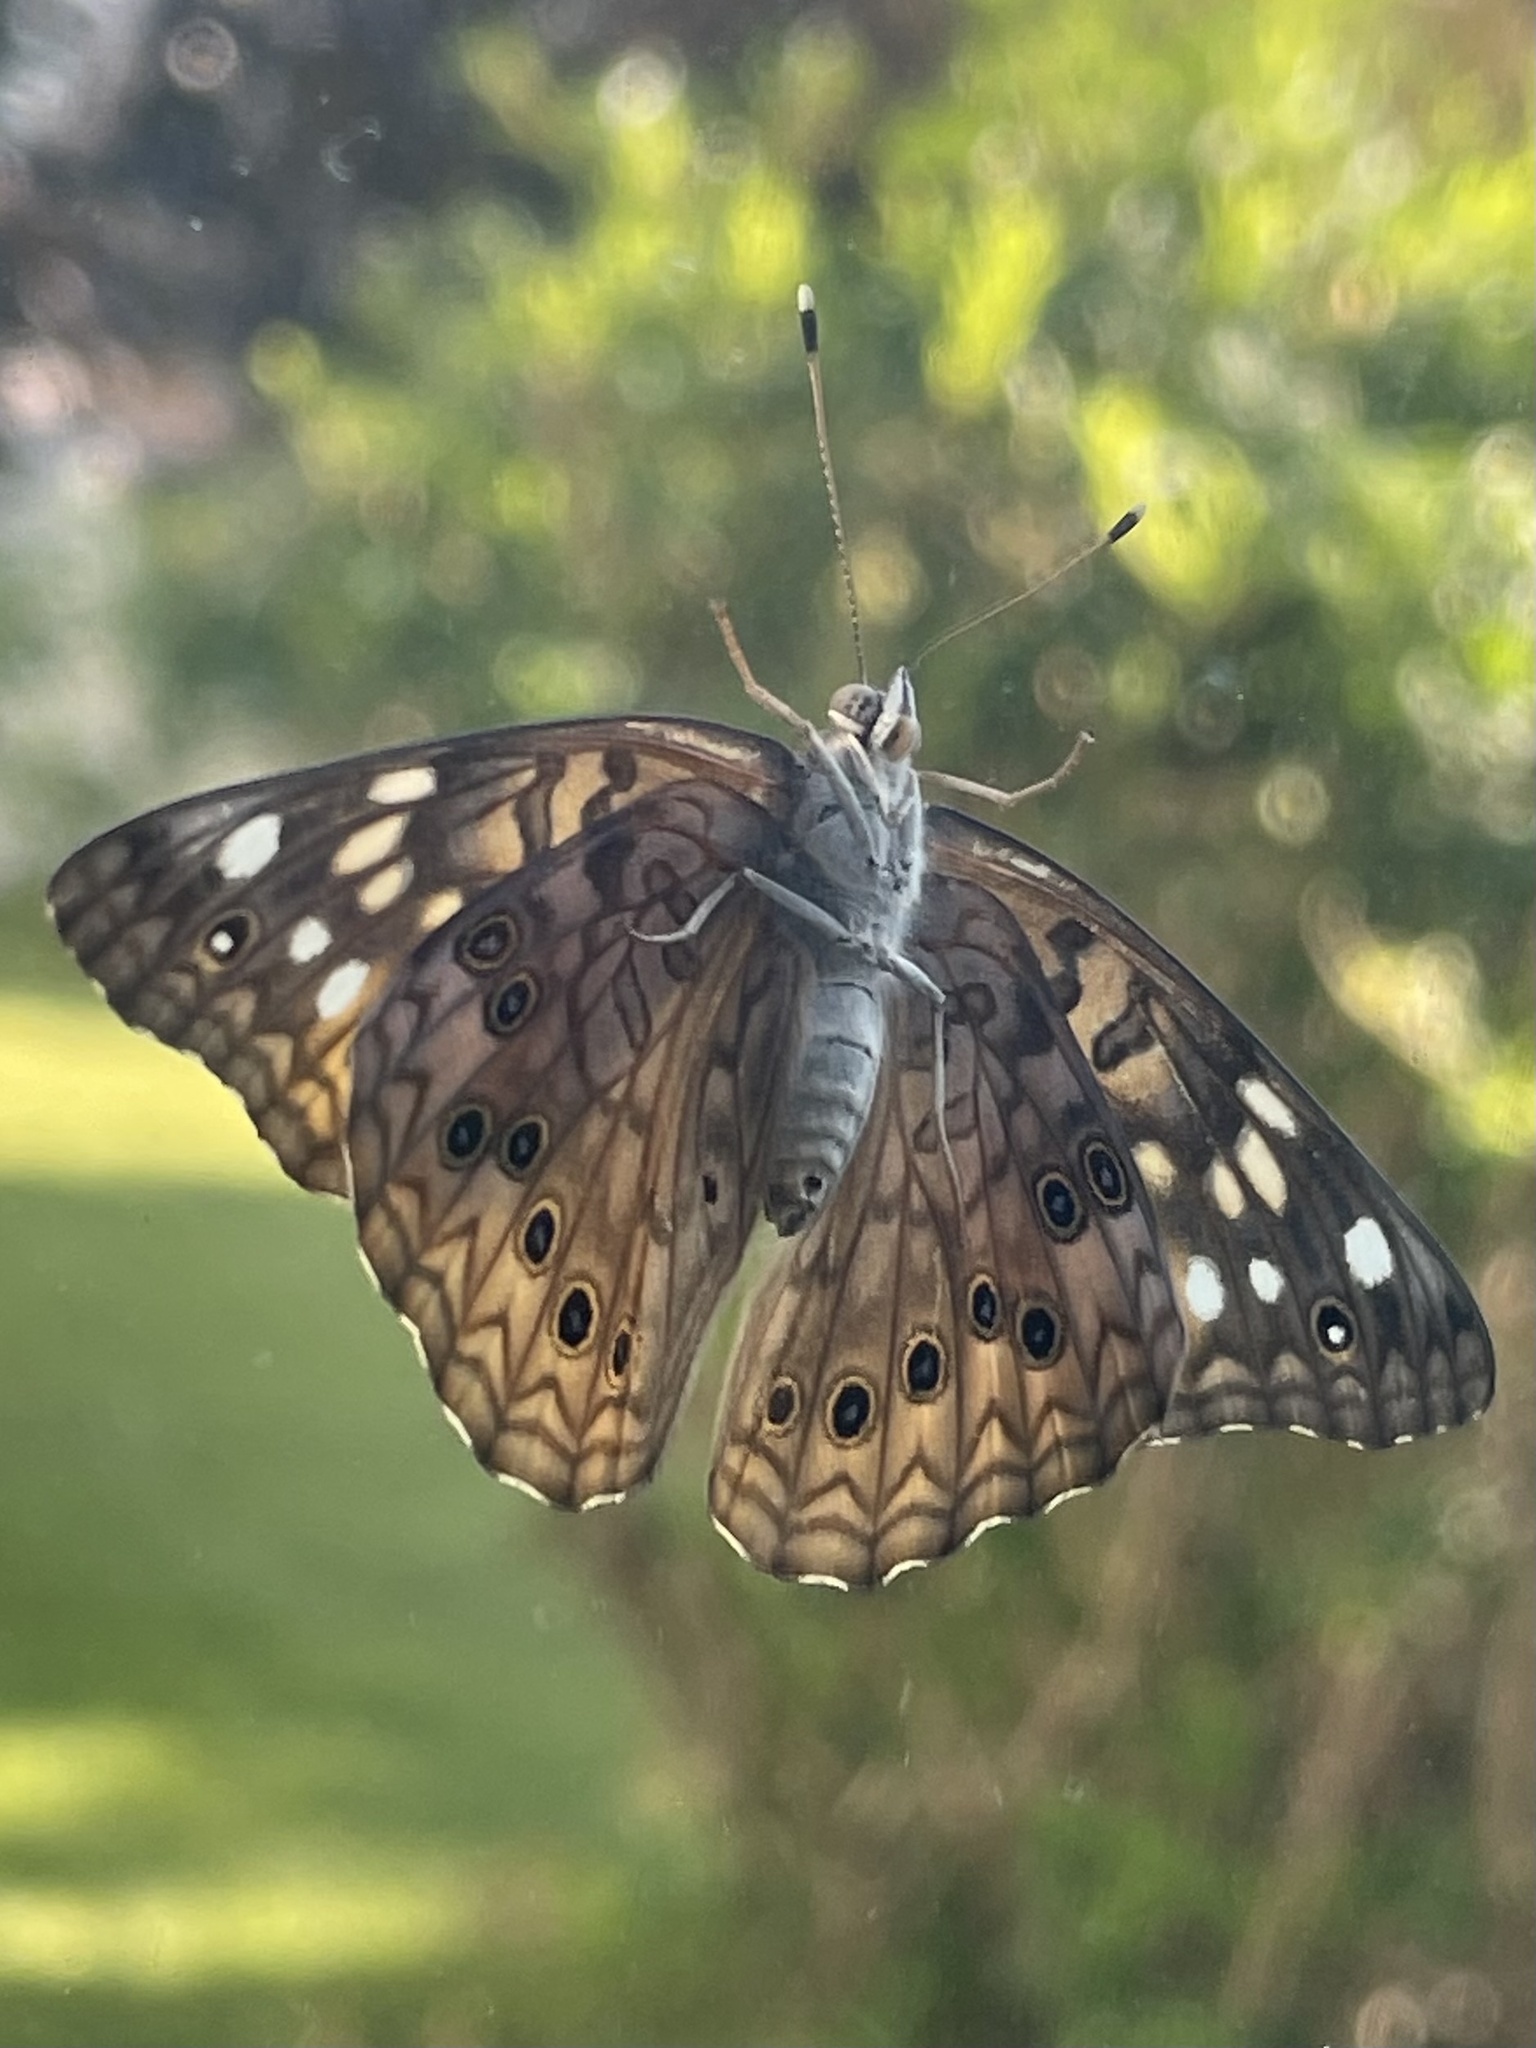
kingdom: Animalia
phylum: Arthropoda
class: Insecta
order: Lepidoptera
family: Nymphalidae
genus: Asterocampa
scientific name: Asterocampa celtis
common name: Hackberry emperor
